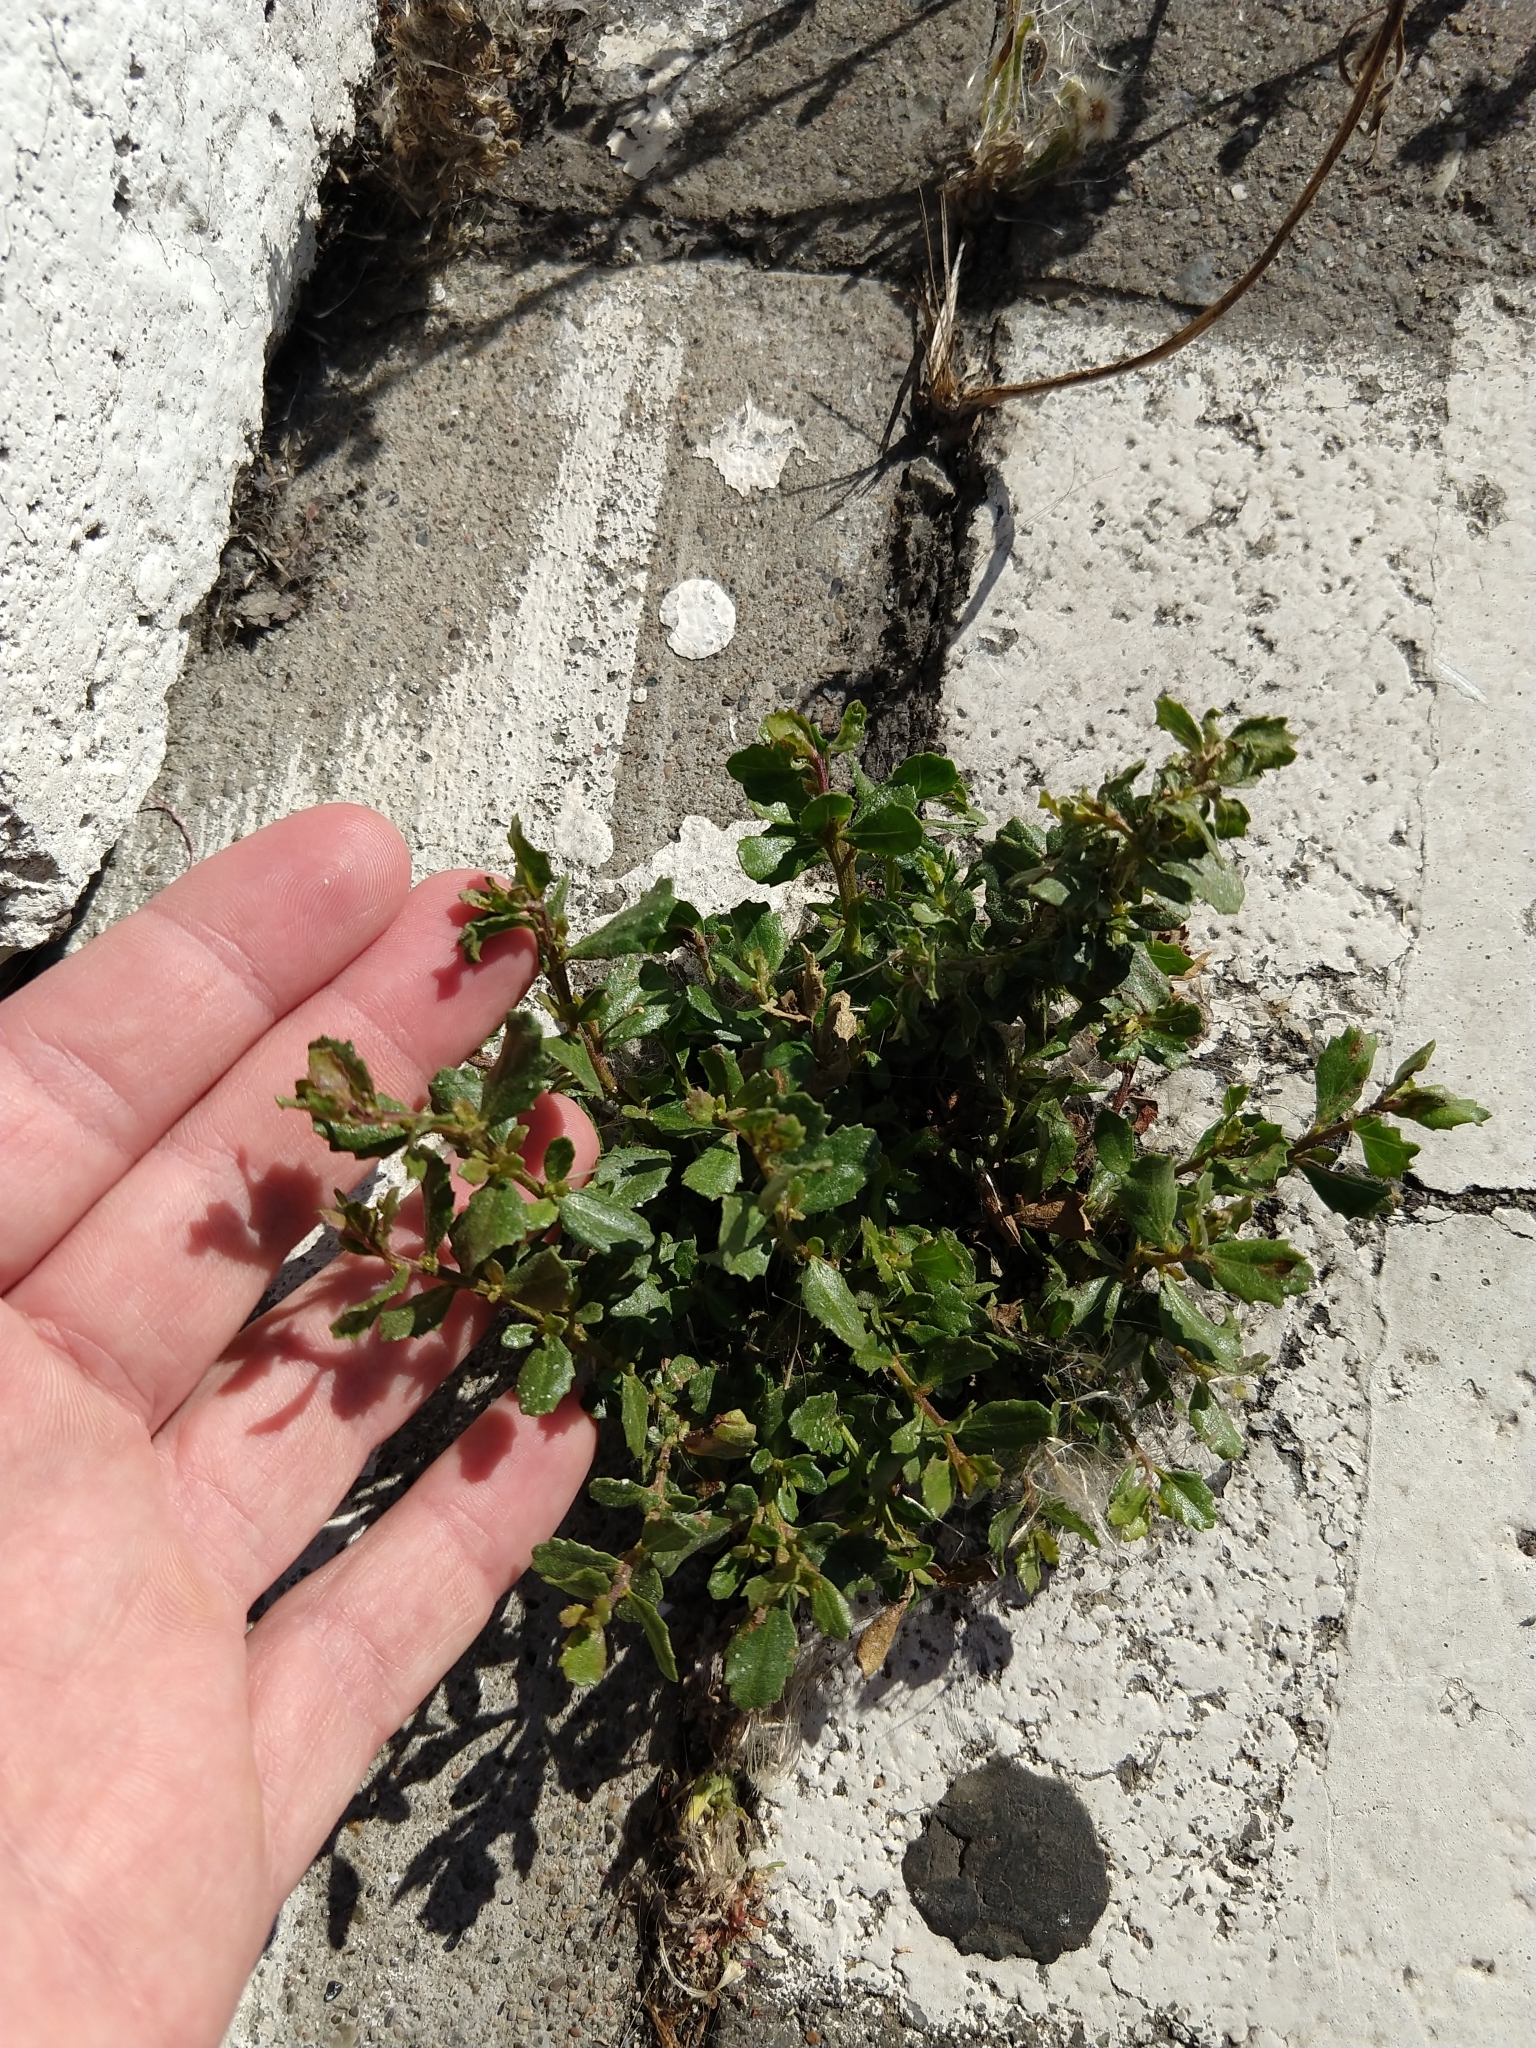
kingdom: Plantae
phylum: Tracheophyta
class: Magnoliopsida
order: Asterales
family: Asteraceae
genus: Baccharis
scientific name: Baccharis pilularis
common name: Coyotebrush
